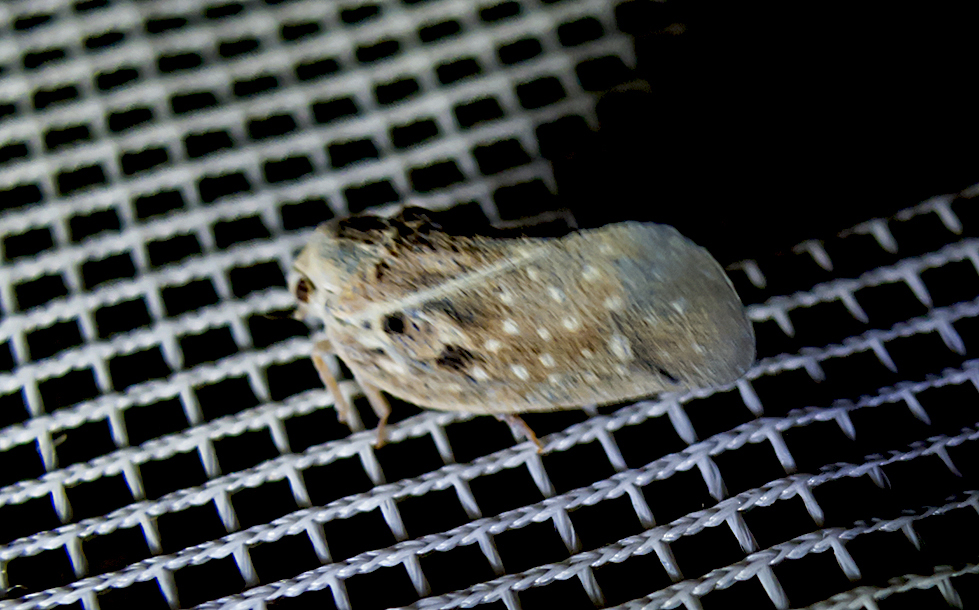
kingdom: Animalia
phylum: Arthropoda
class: Insecta
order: Hemiptera
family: Flatidae
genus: Metcalfa
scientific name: Metcalfa pruinosa
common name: Citrus flatid planthopper
